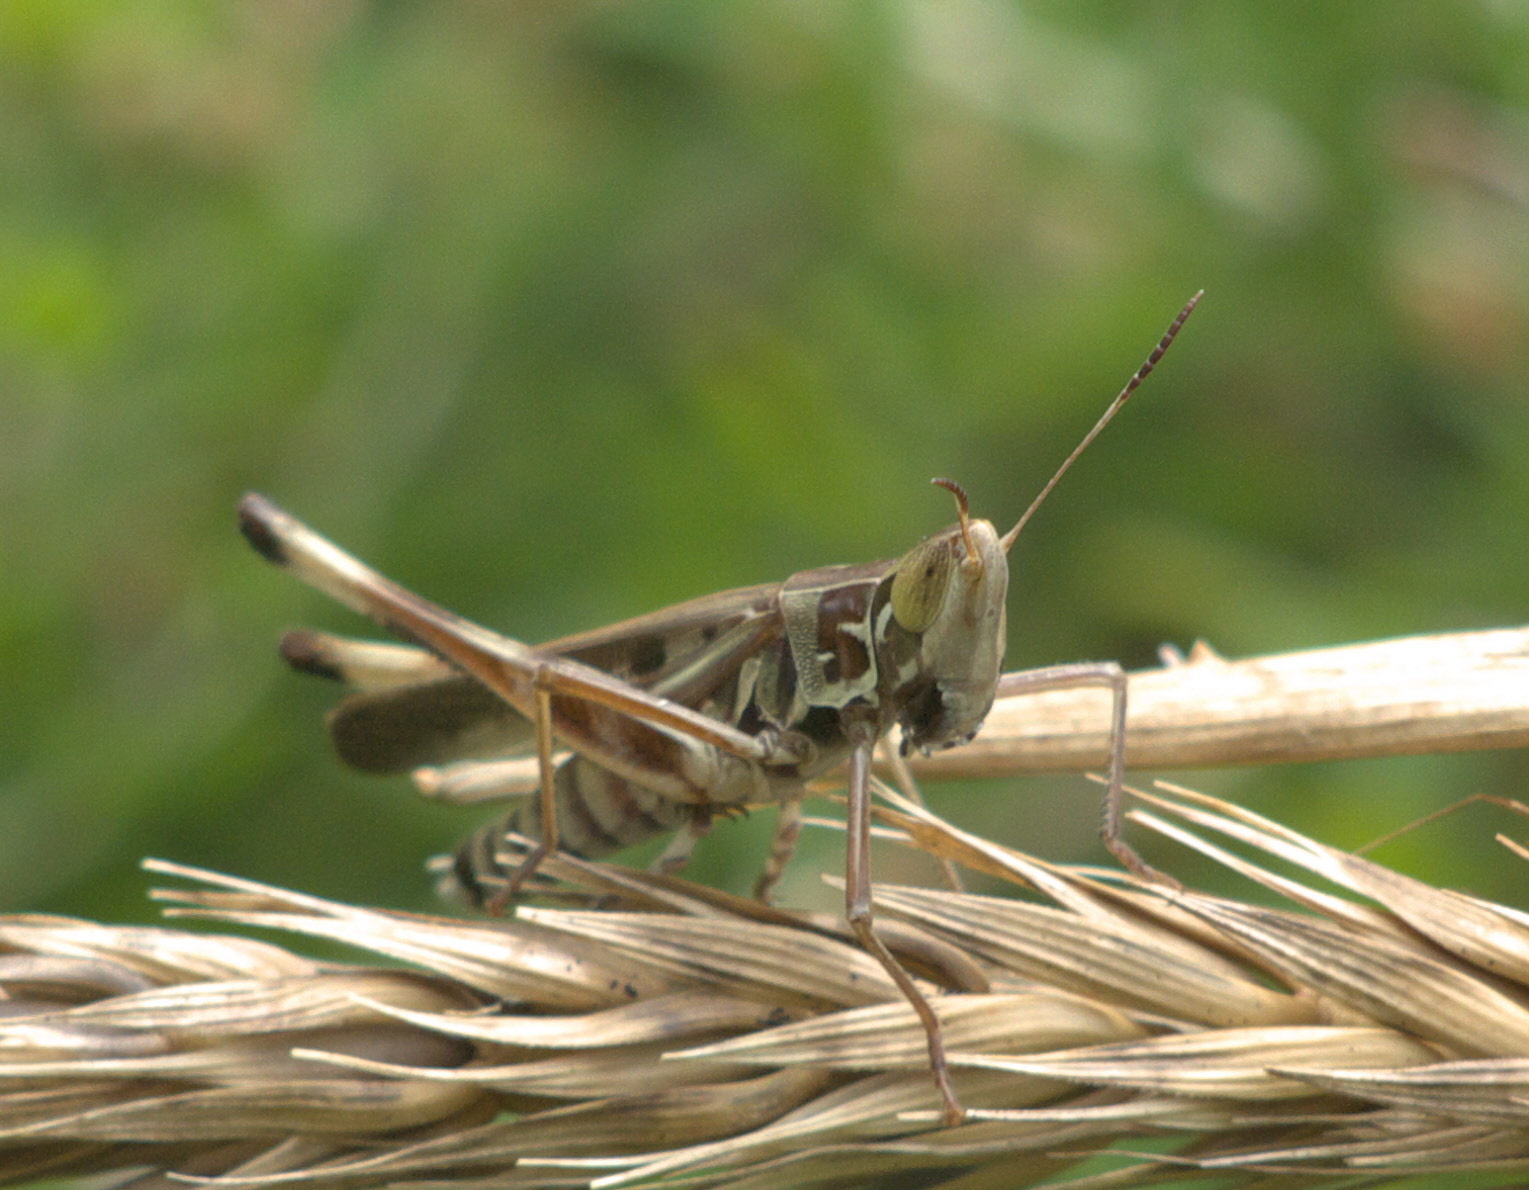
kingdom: Animalia
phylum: Arthropoda
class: Insecta
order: Orthoptera
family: Acrididae
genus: Syrbula
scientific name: Syrbula admirabilis
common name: Handsome grasshopper
